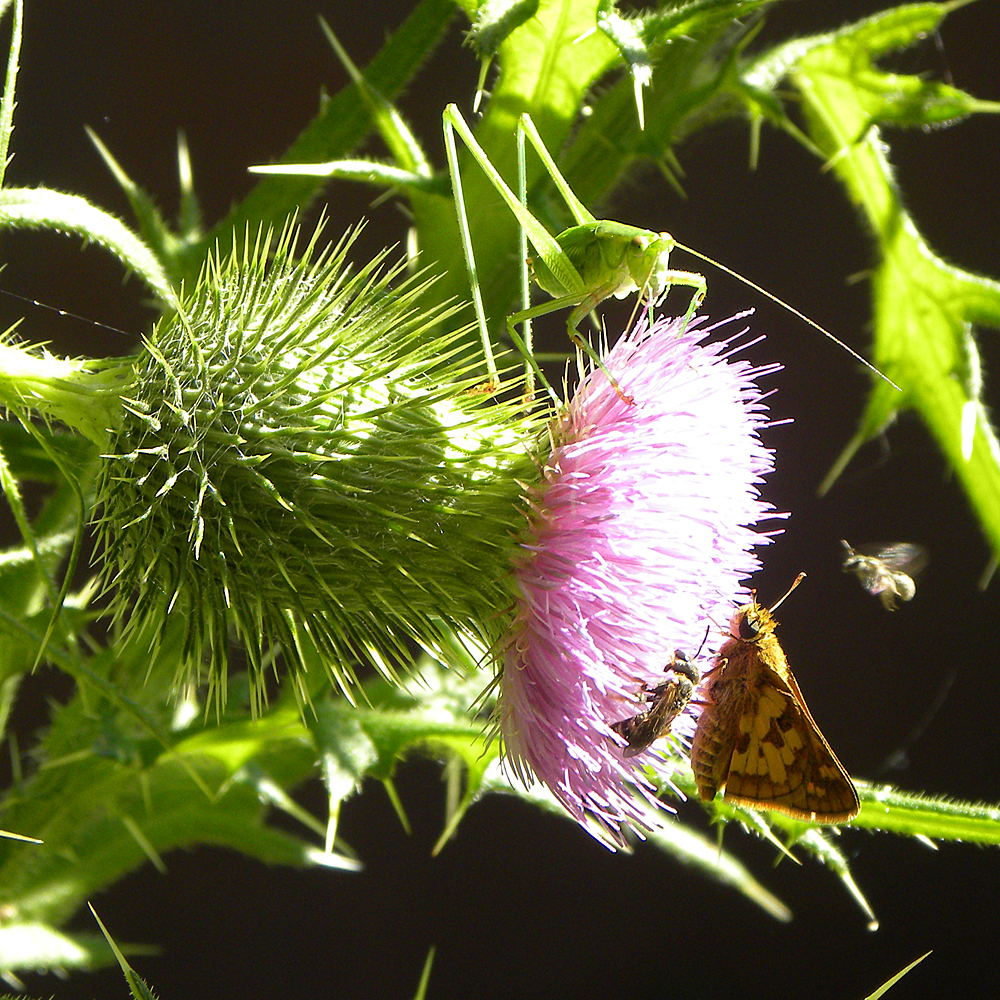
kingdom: Plantae
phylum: Tracheophyta
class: Magnoliopsida
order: Asterales
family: Asteraceae
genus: Cirsium
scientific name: Cirsium vulgare
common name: Bull thistle
